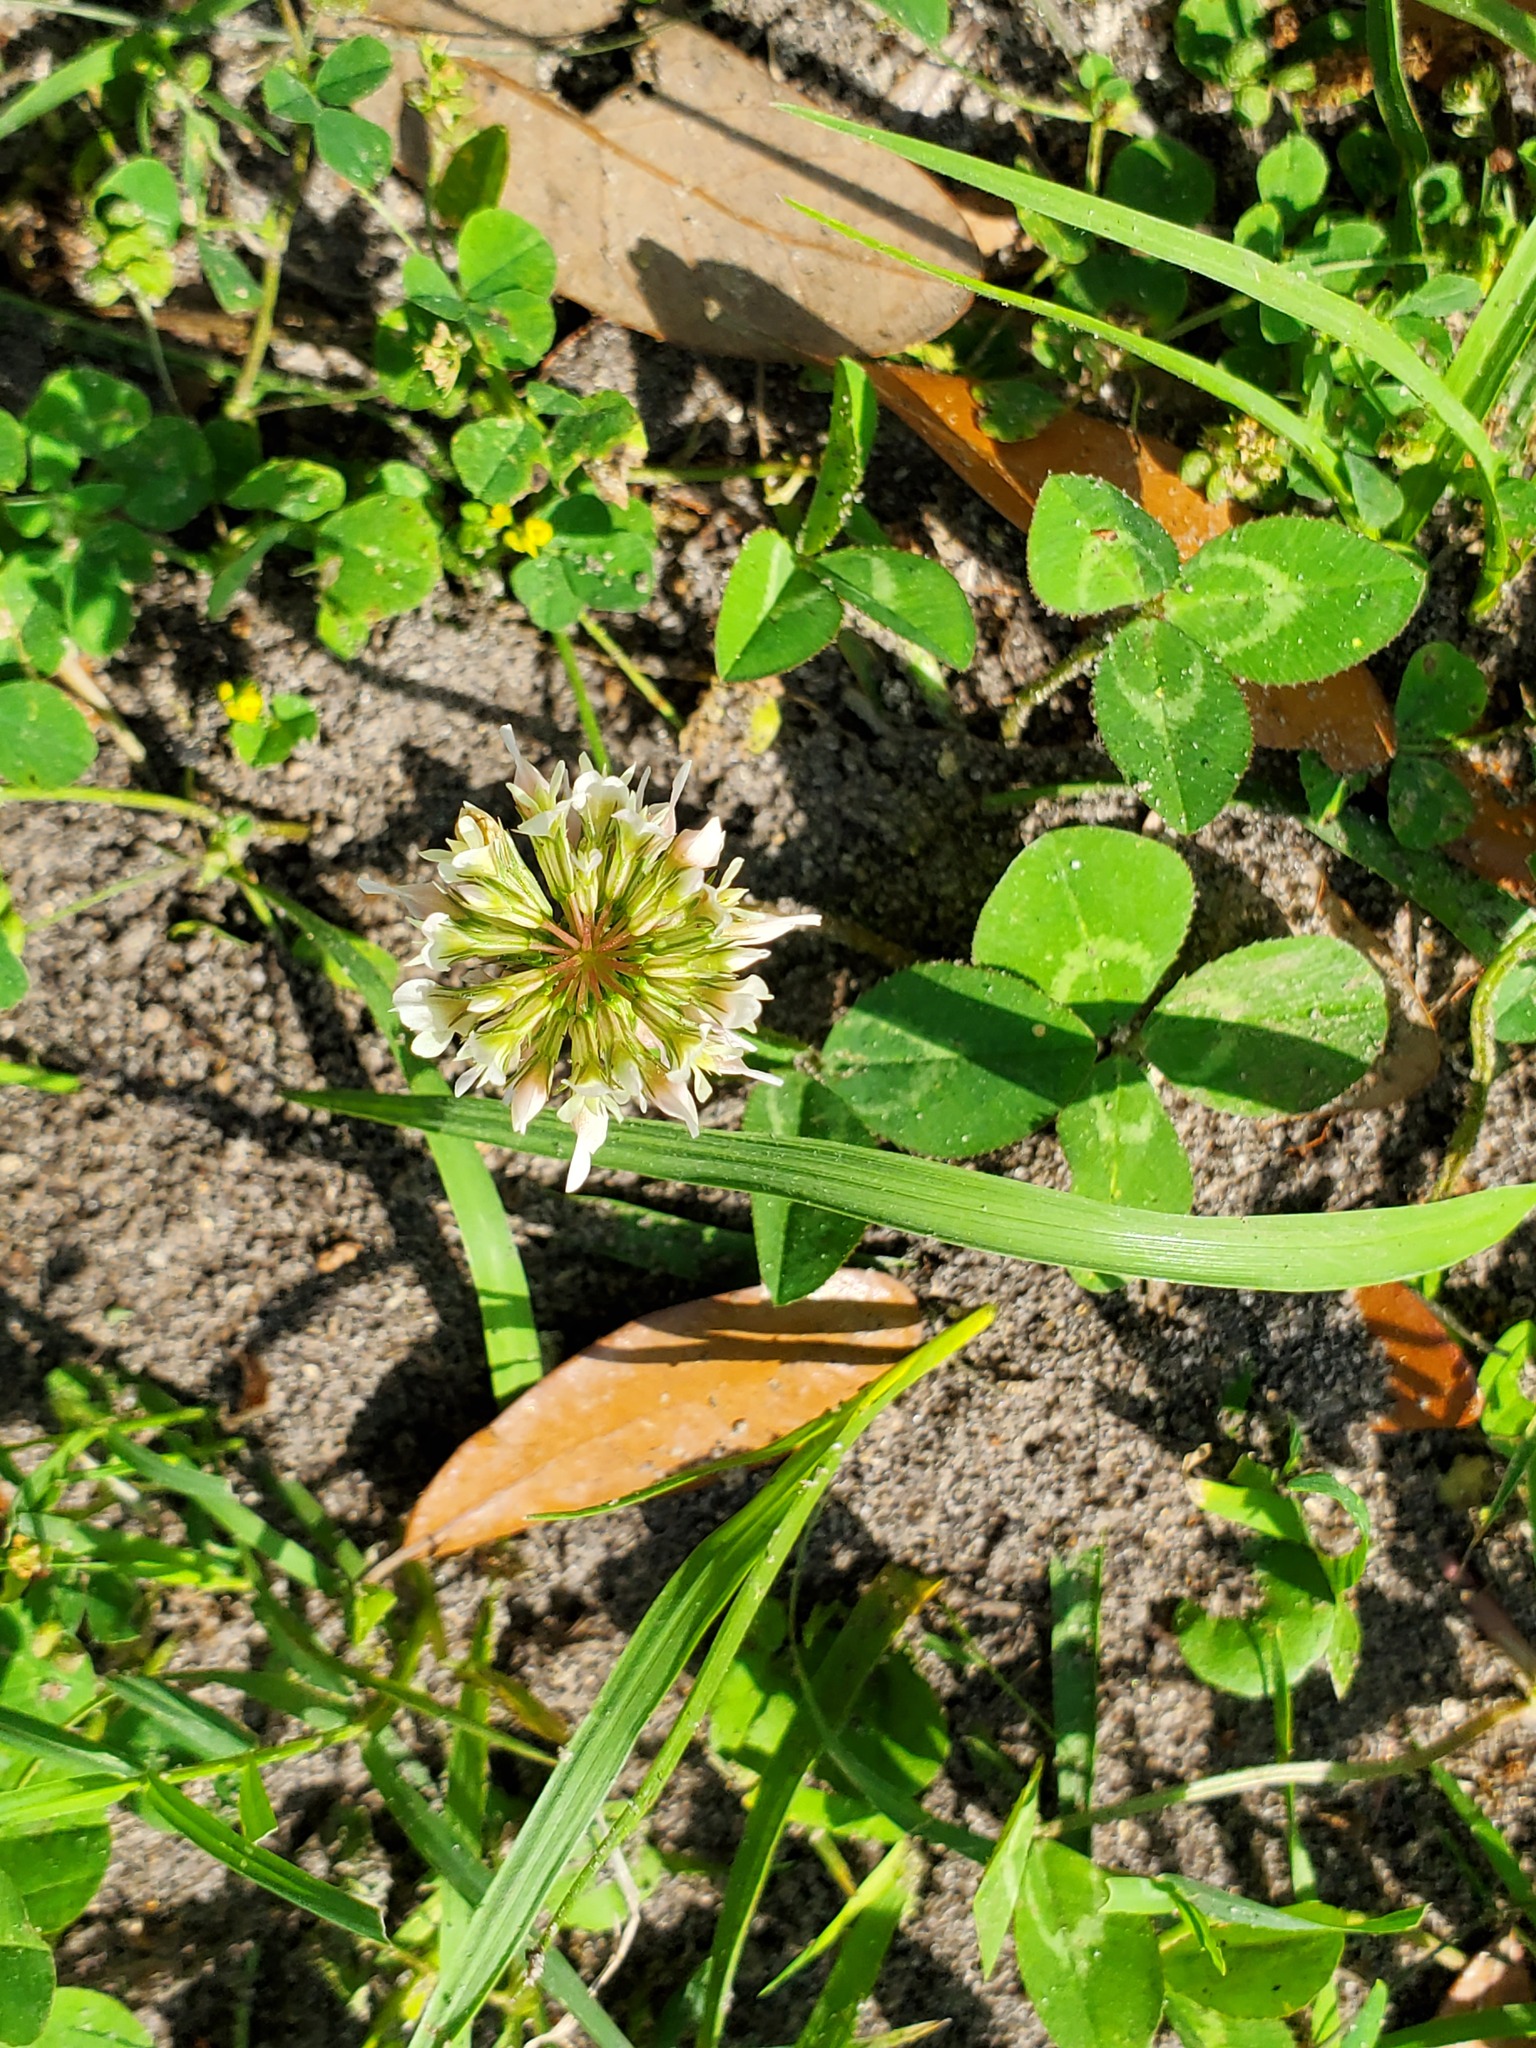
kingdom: Plantae
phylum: Tracheophyta
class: Magnoliopsida
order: Fabales
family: Fabaceae
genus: Trifolium
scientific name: Trifolium repens
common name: White clover
